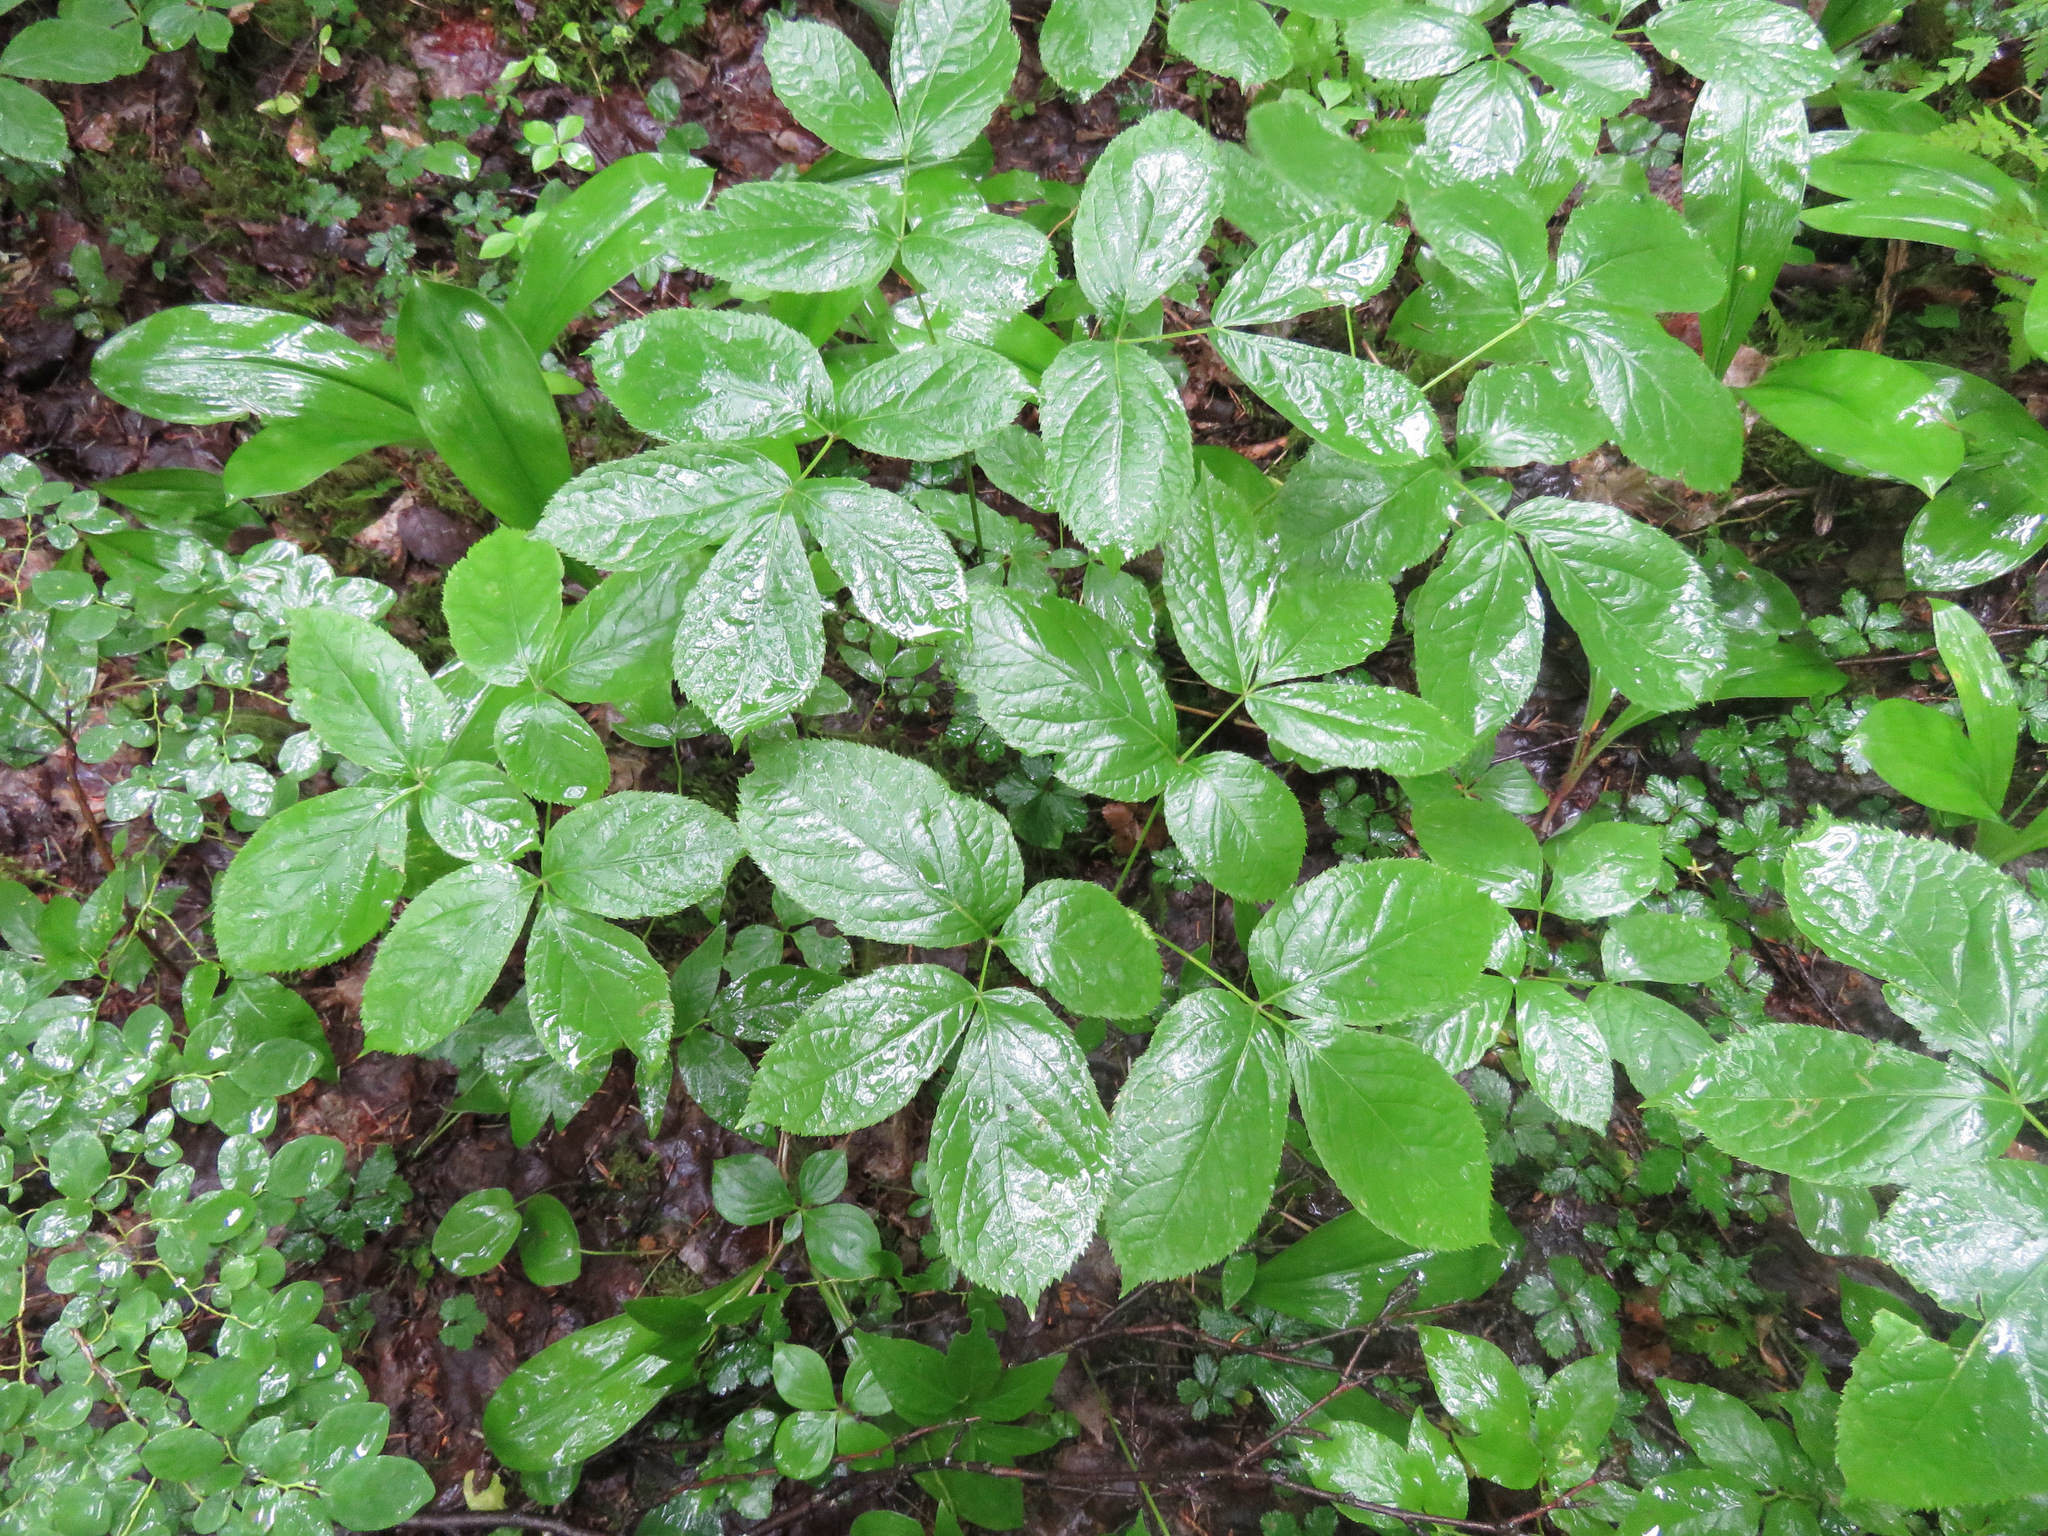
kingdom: Plantae
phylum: Tracheophyta
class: Magnoliopsida
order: Apiales
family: Araliaceae
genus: Aralia
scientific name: Aralia nudicaulis
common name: Wild sarsaparilla
